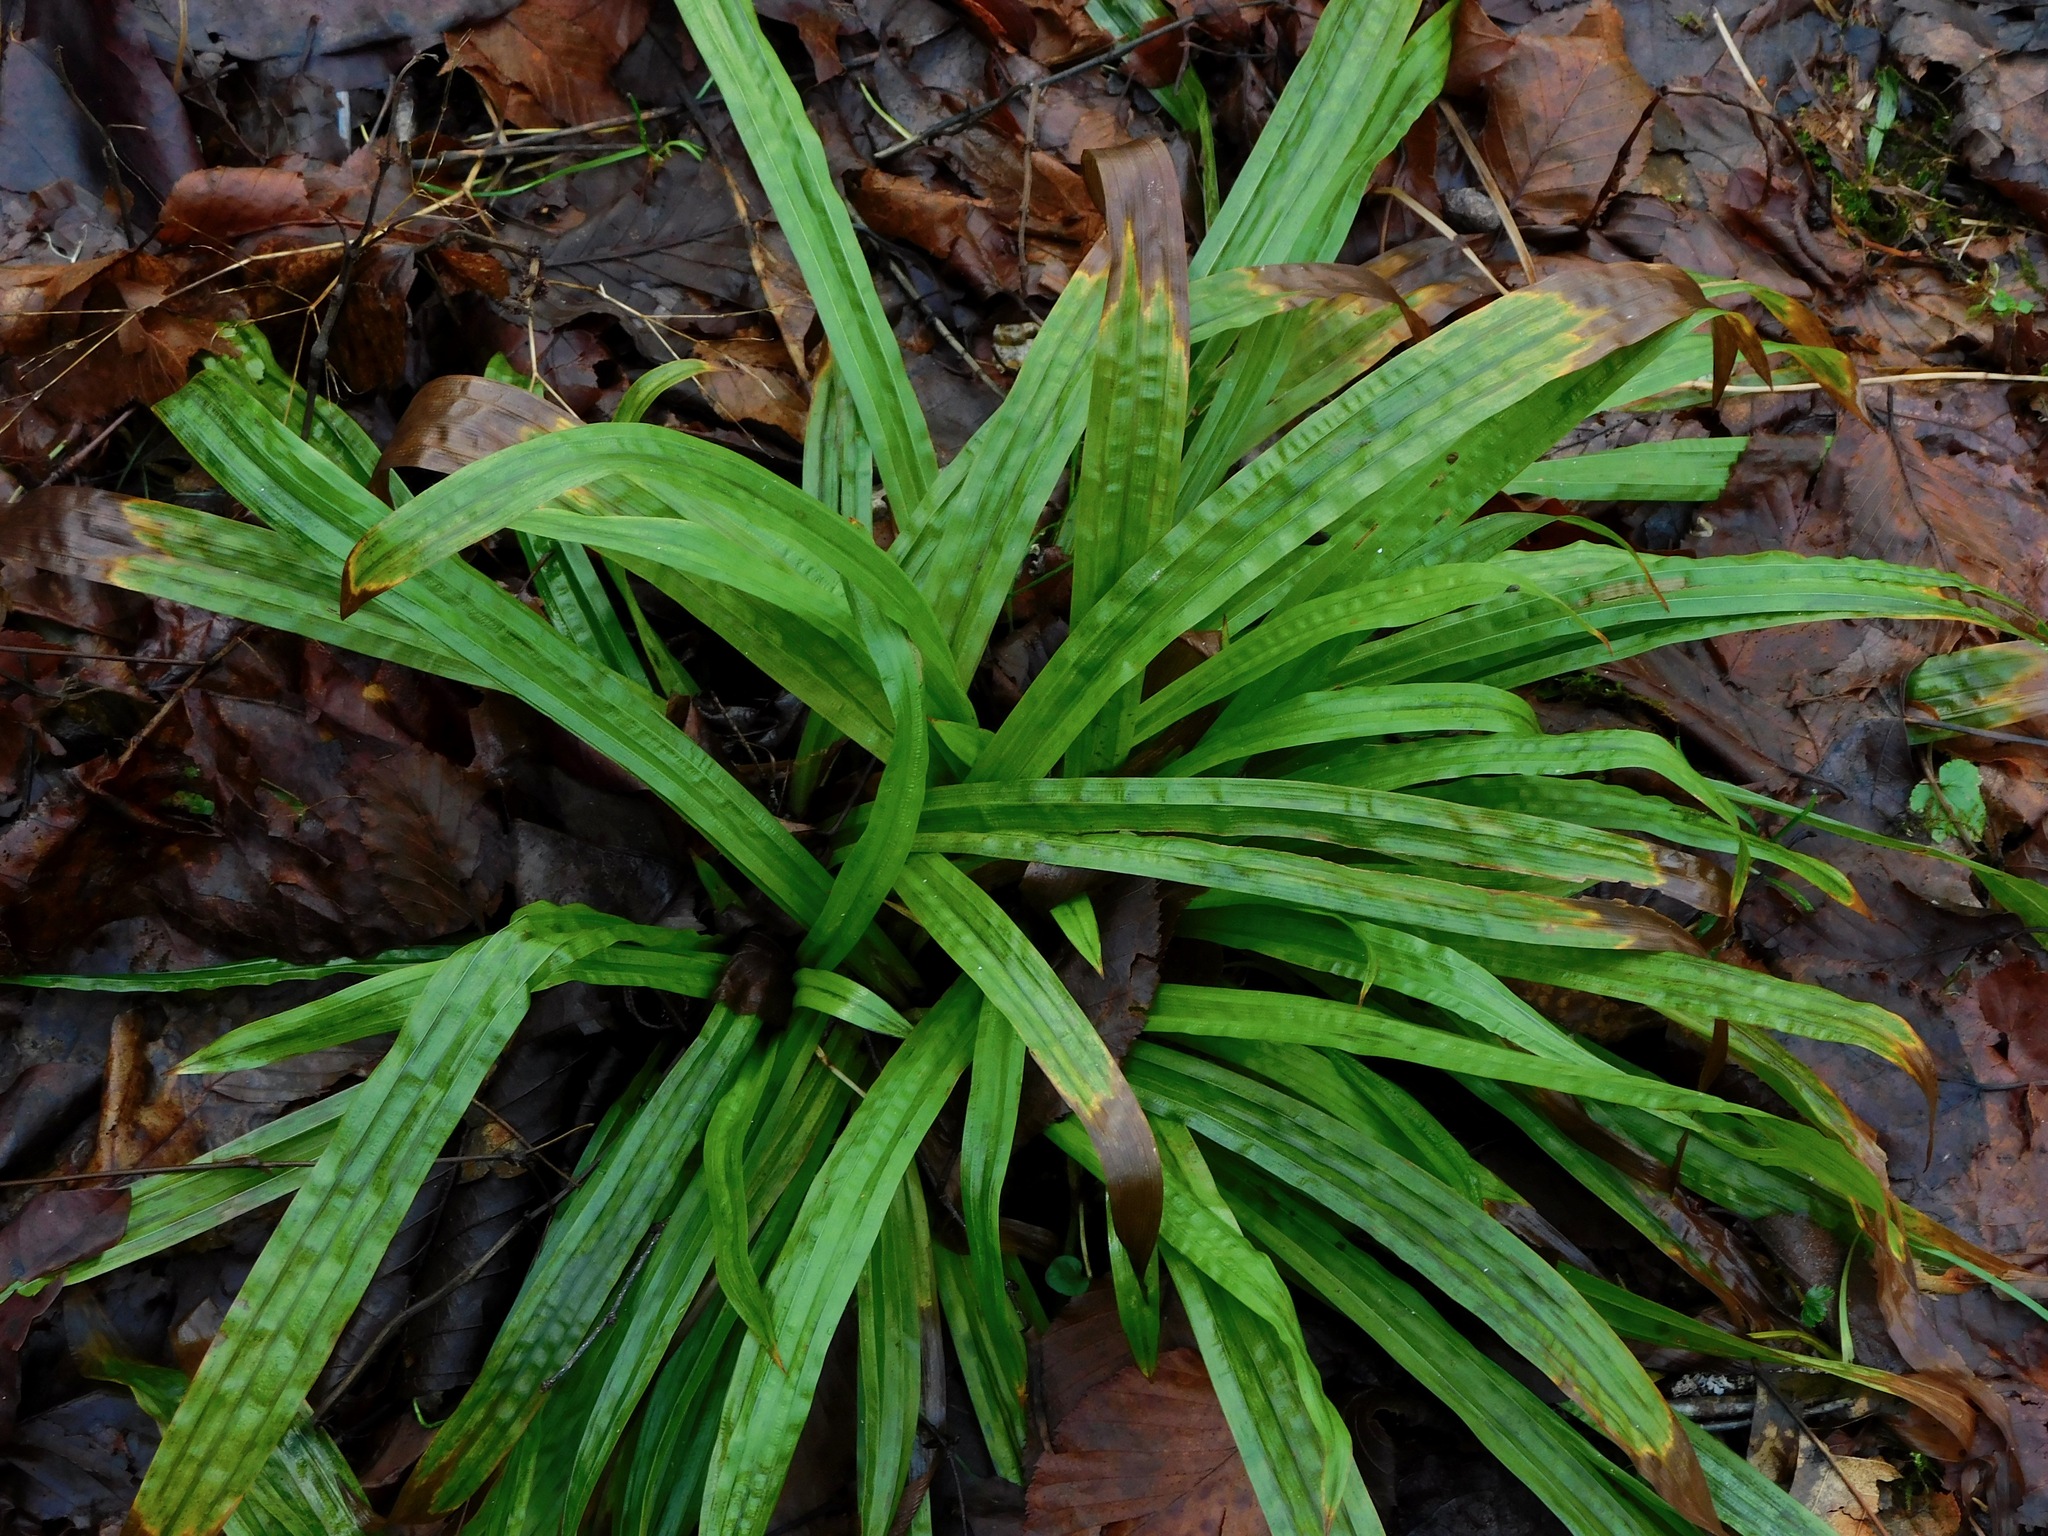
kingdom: Plantae
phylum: Tracheophyta
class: Liliopsida
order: Poales
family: Cyperaceae
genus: Carex
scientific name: Carex plantaginea
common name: Plantain-leaved sedge
